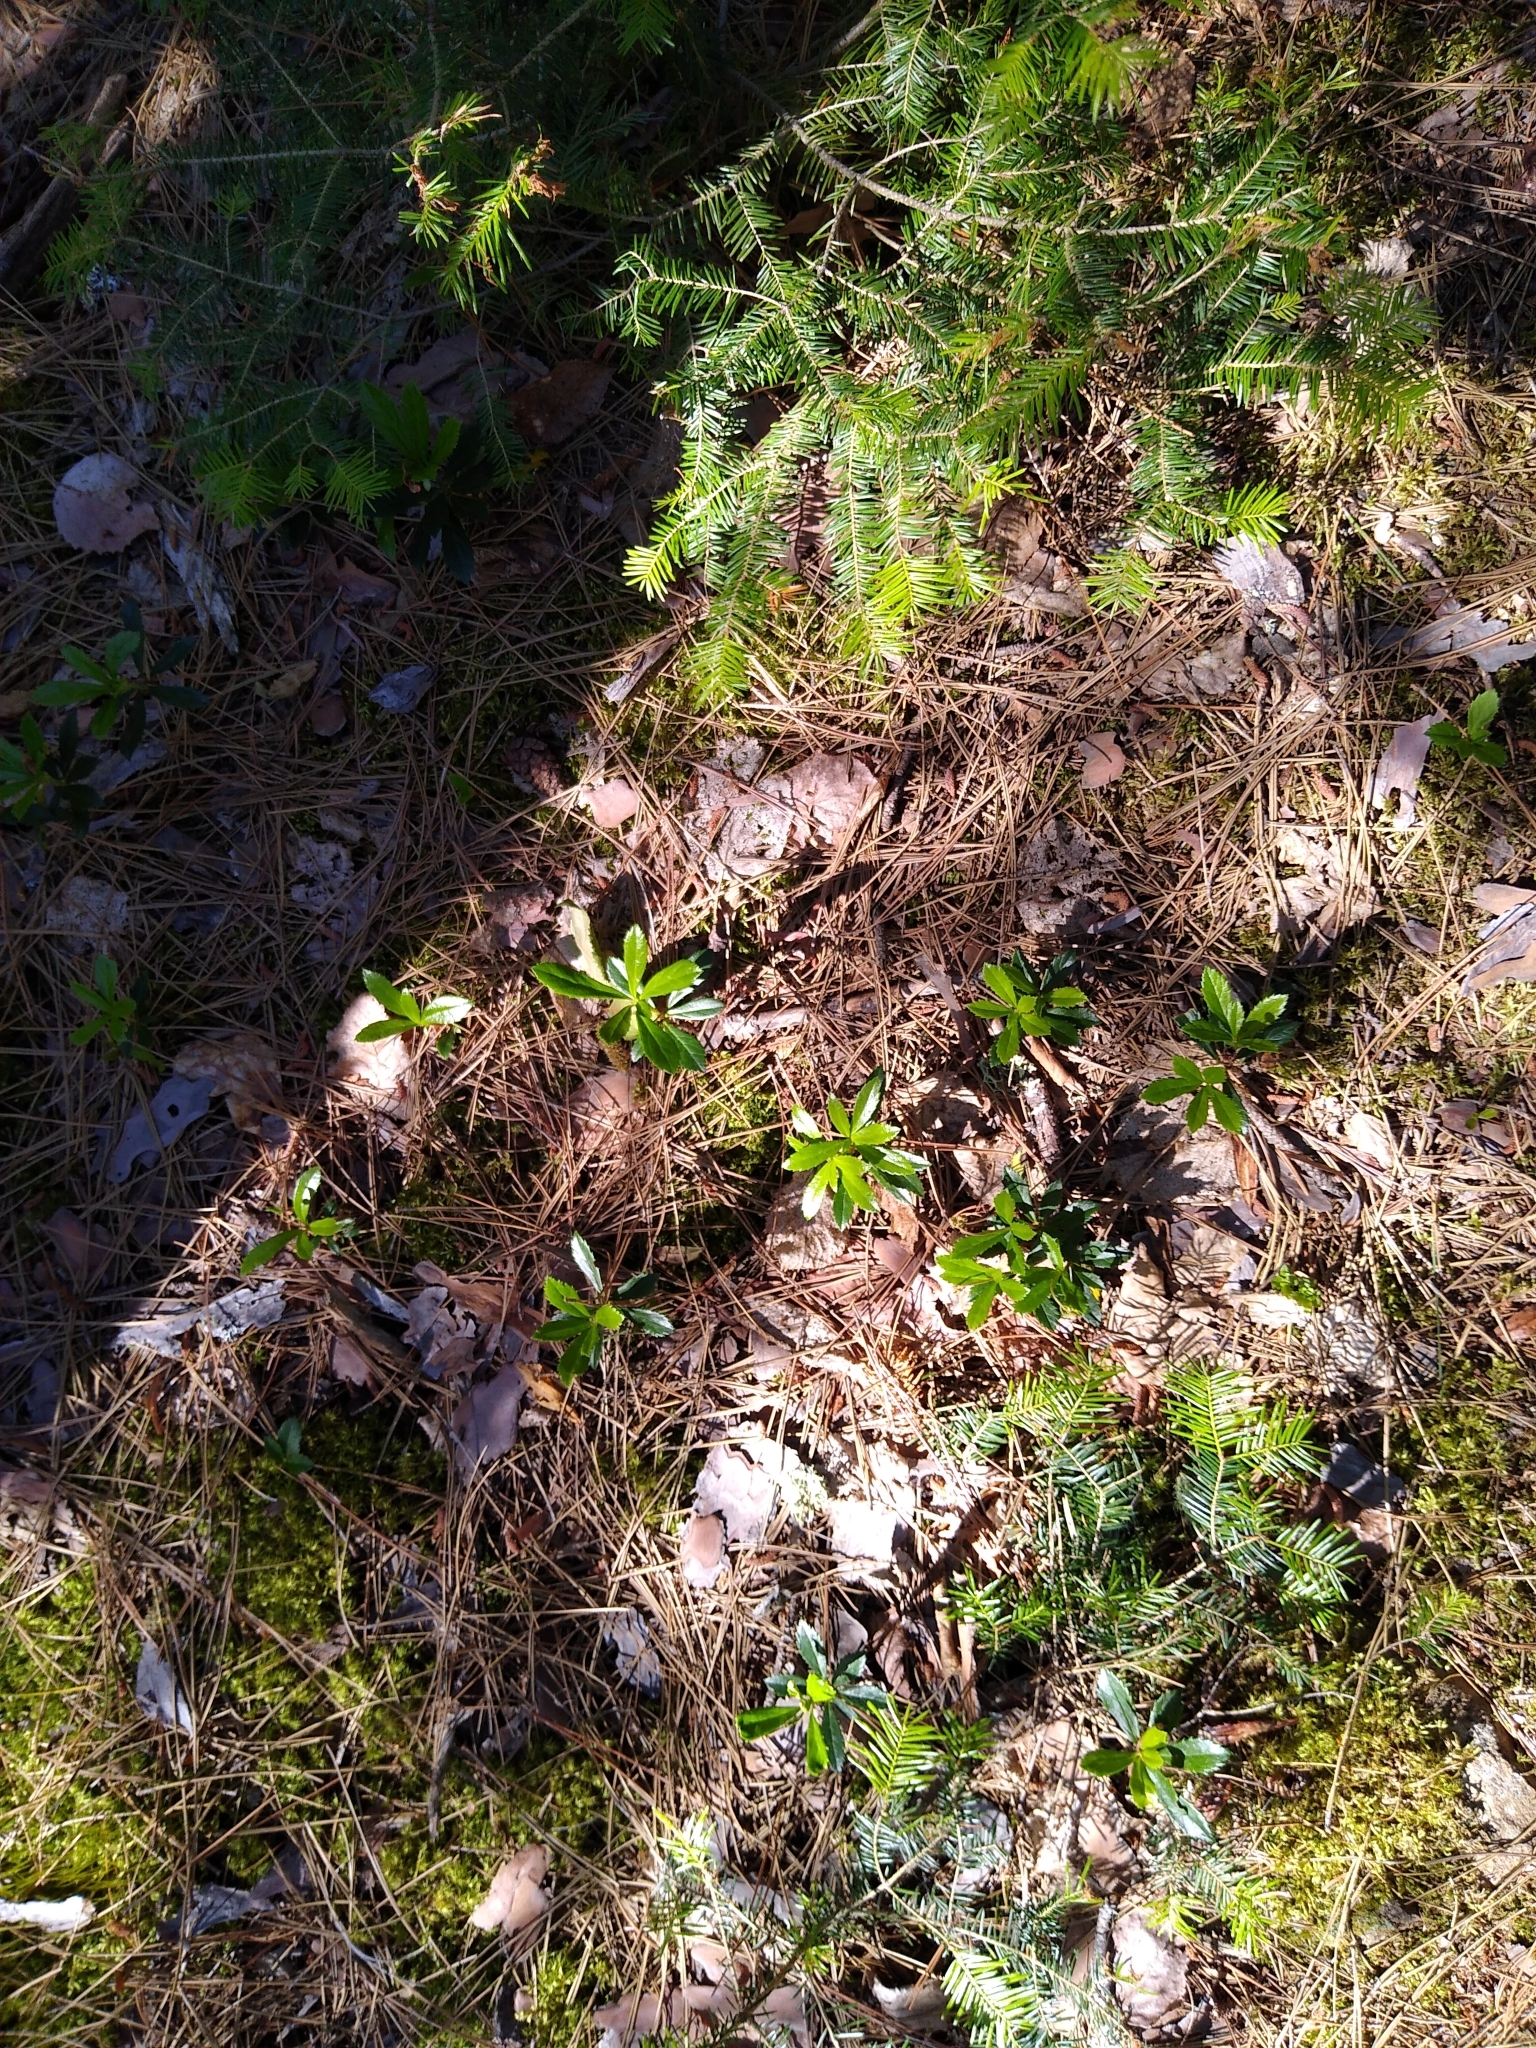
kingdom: Plantae
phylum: Tracheophyta
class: Magnoliopsida
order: Ericales
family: Ericaceae
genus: Chimaphila
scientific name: Chimaphila umbellata
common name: Pipsissewa
